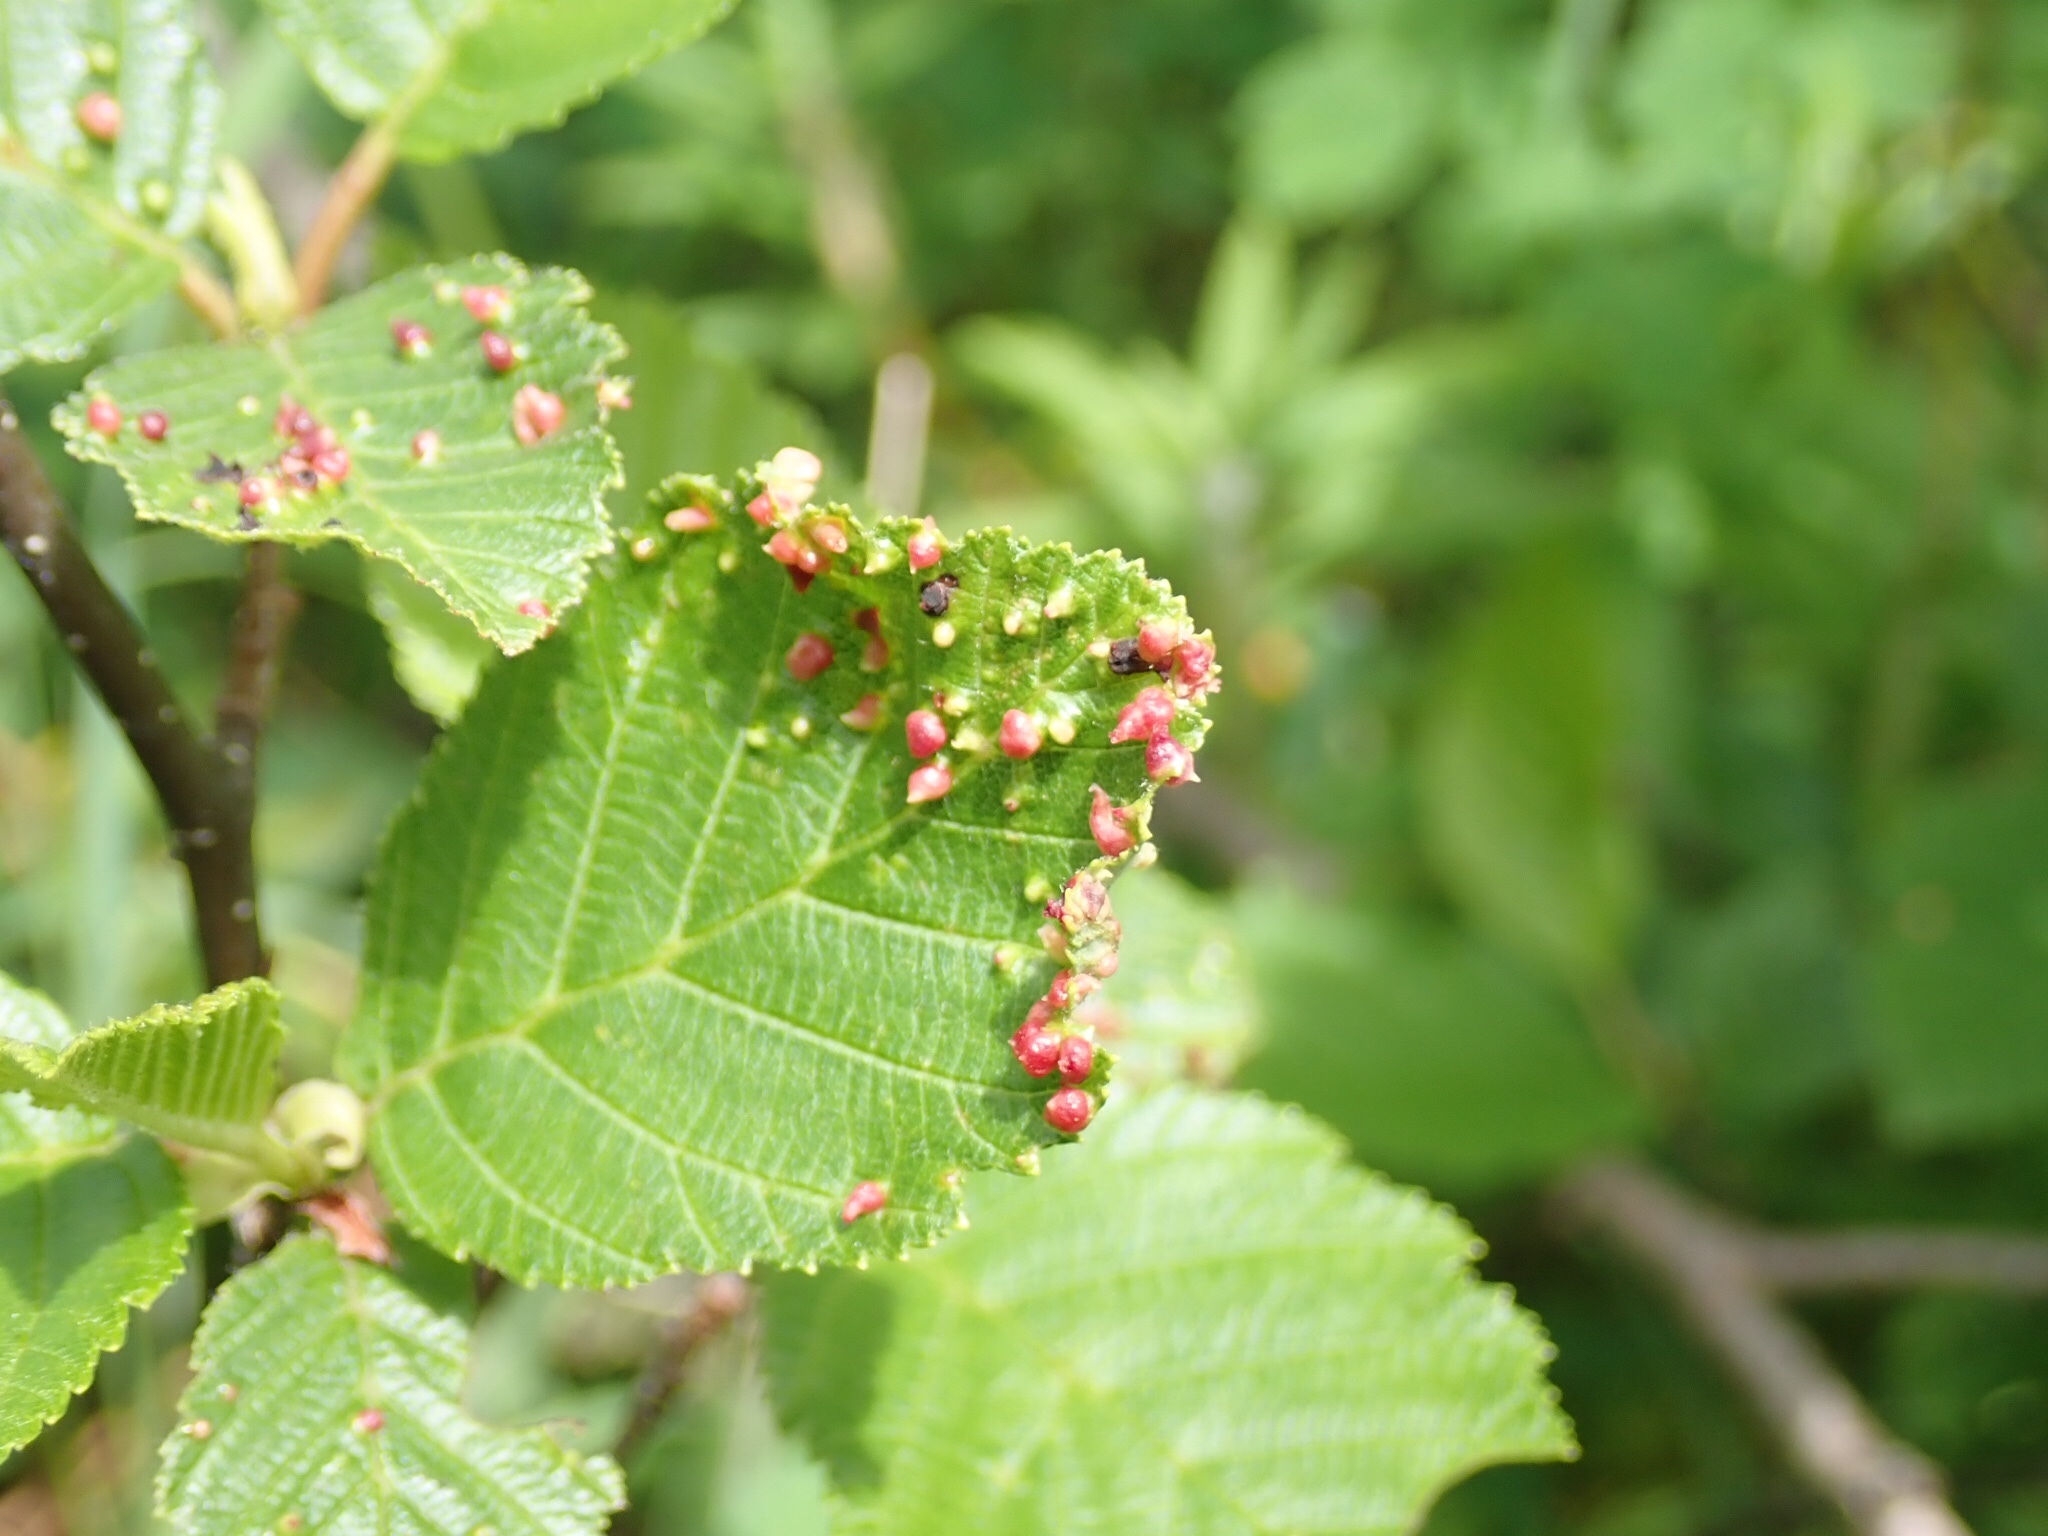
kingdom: Animalia
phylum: Arthropoda
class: Arachnida
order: Trombidiformes
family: Eriophyidae
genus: Eriophyes
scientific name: Eriophyes laevis
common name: Alder leaf gall mite
